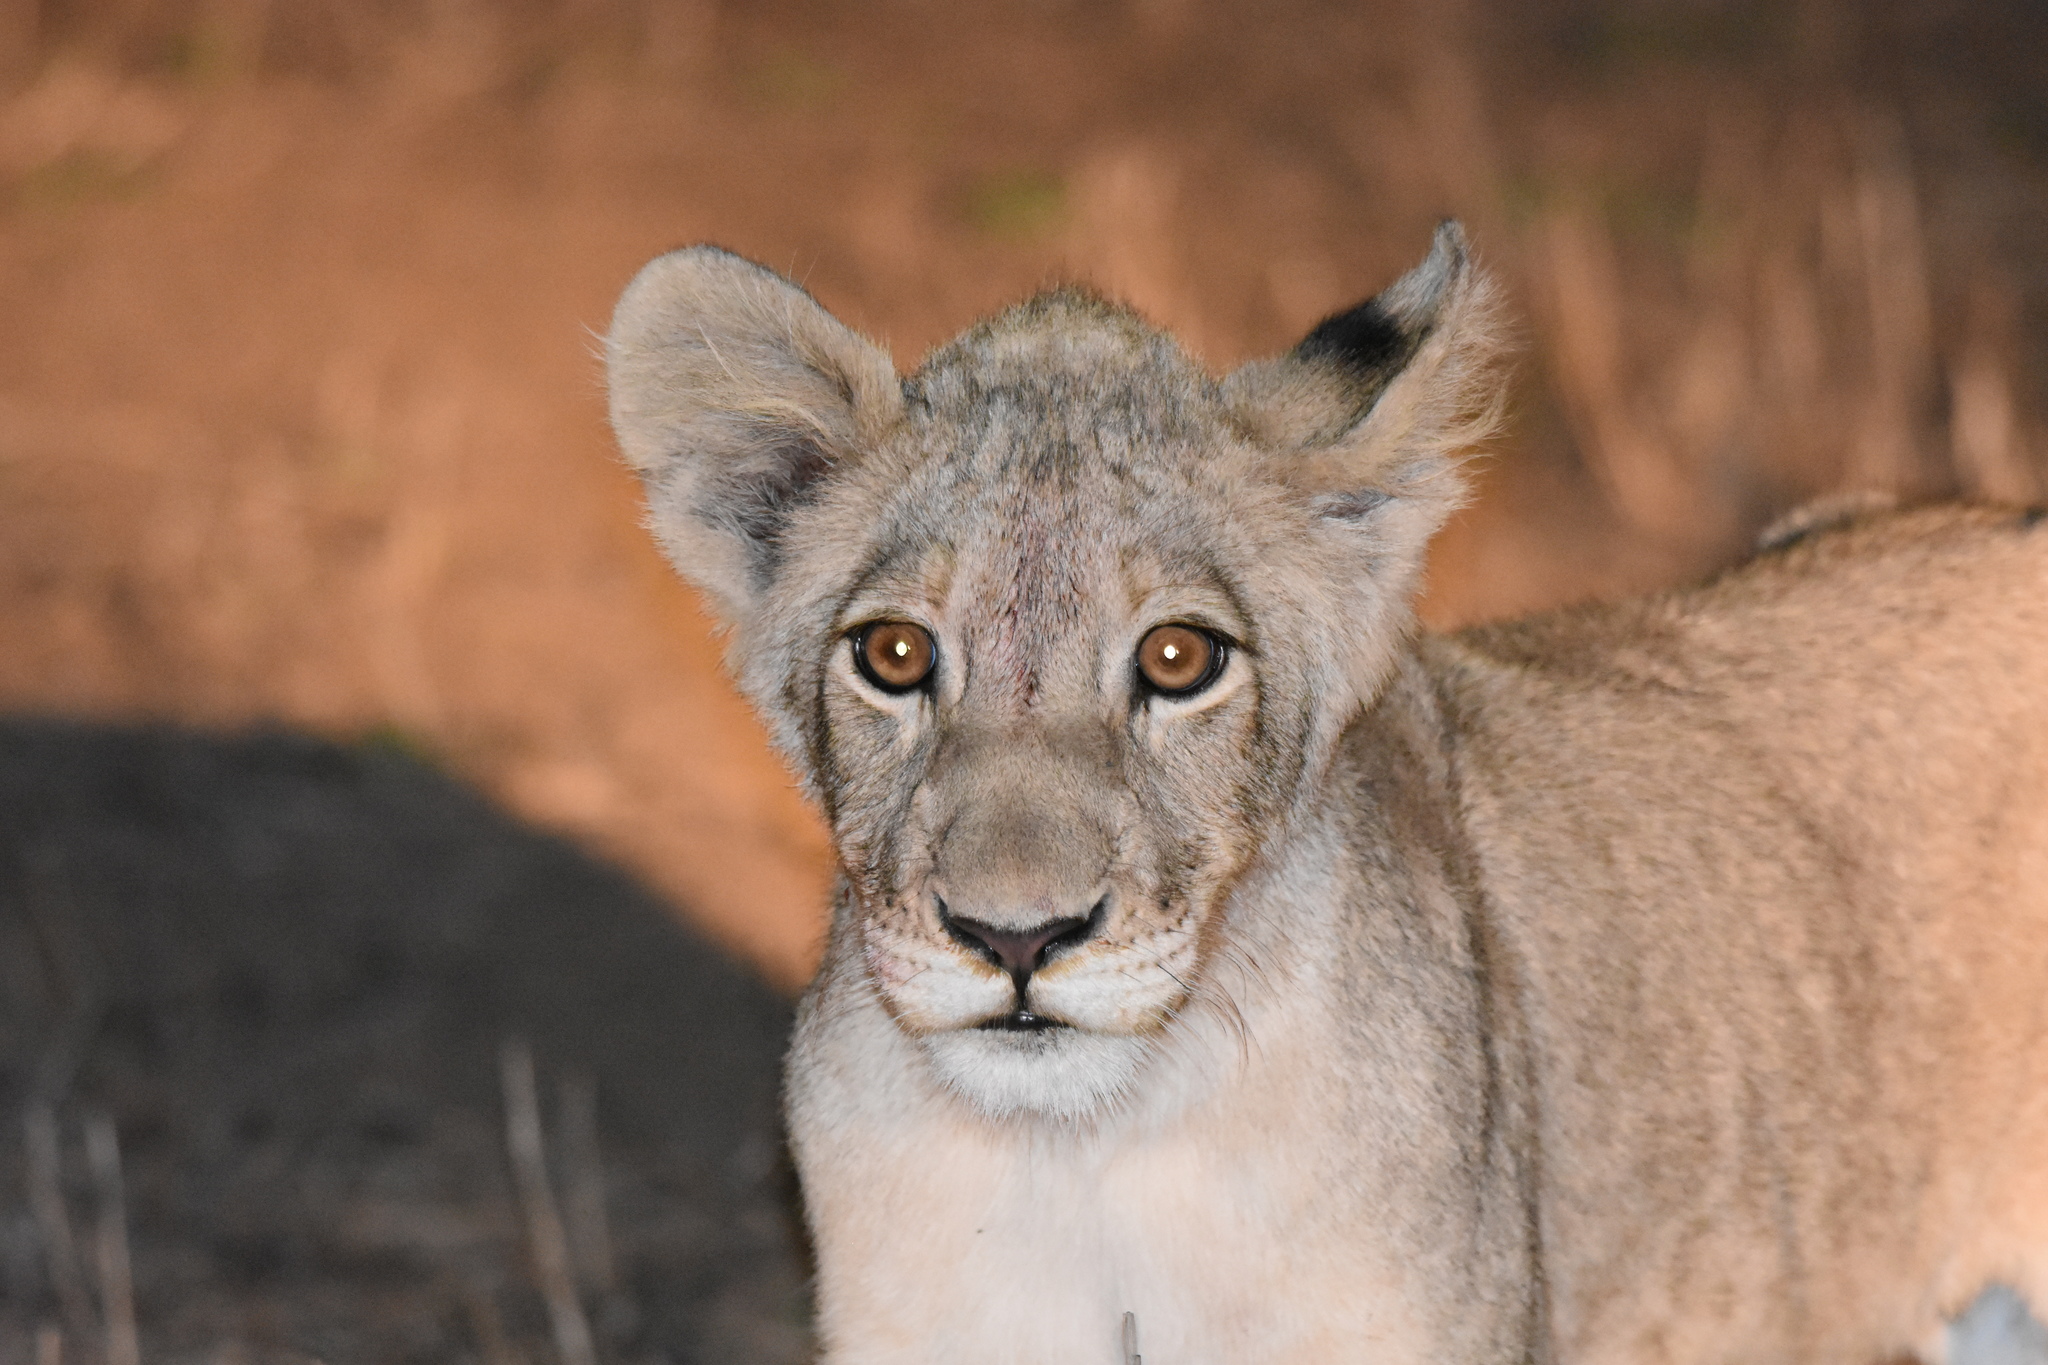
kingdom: Animalia
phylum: Chordata
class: Mammalia
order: Carnivora
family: Felidae
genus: Panthera
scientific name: Panthera leo
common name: Lion
